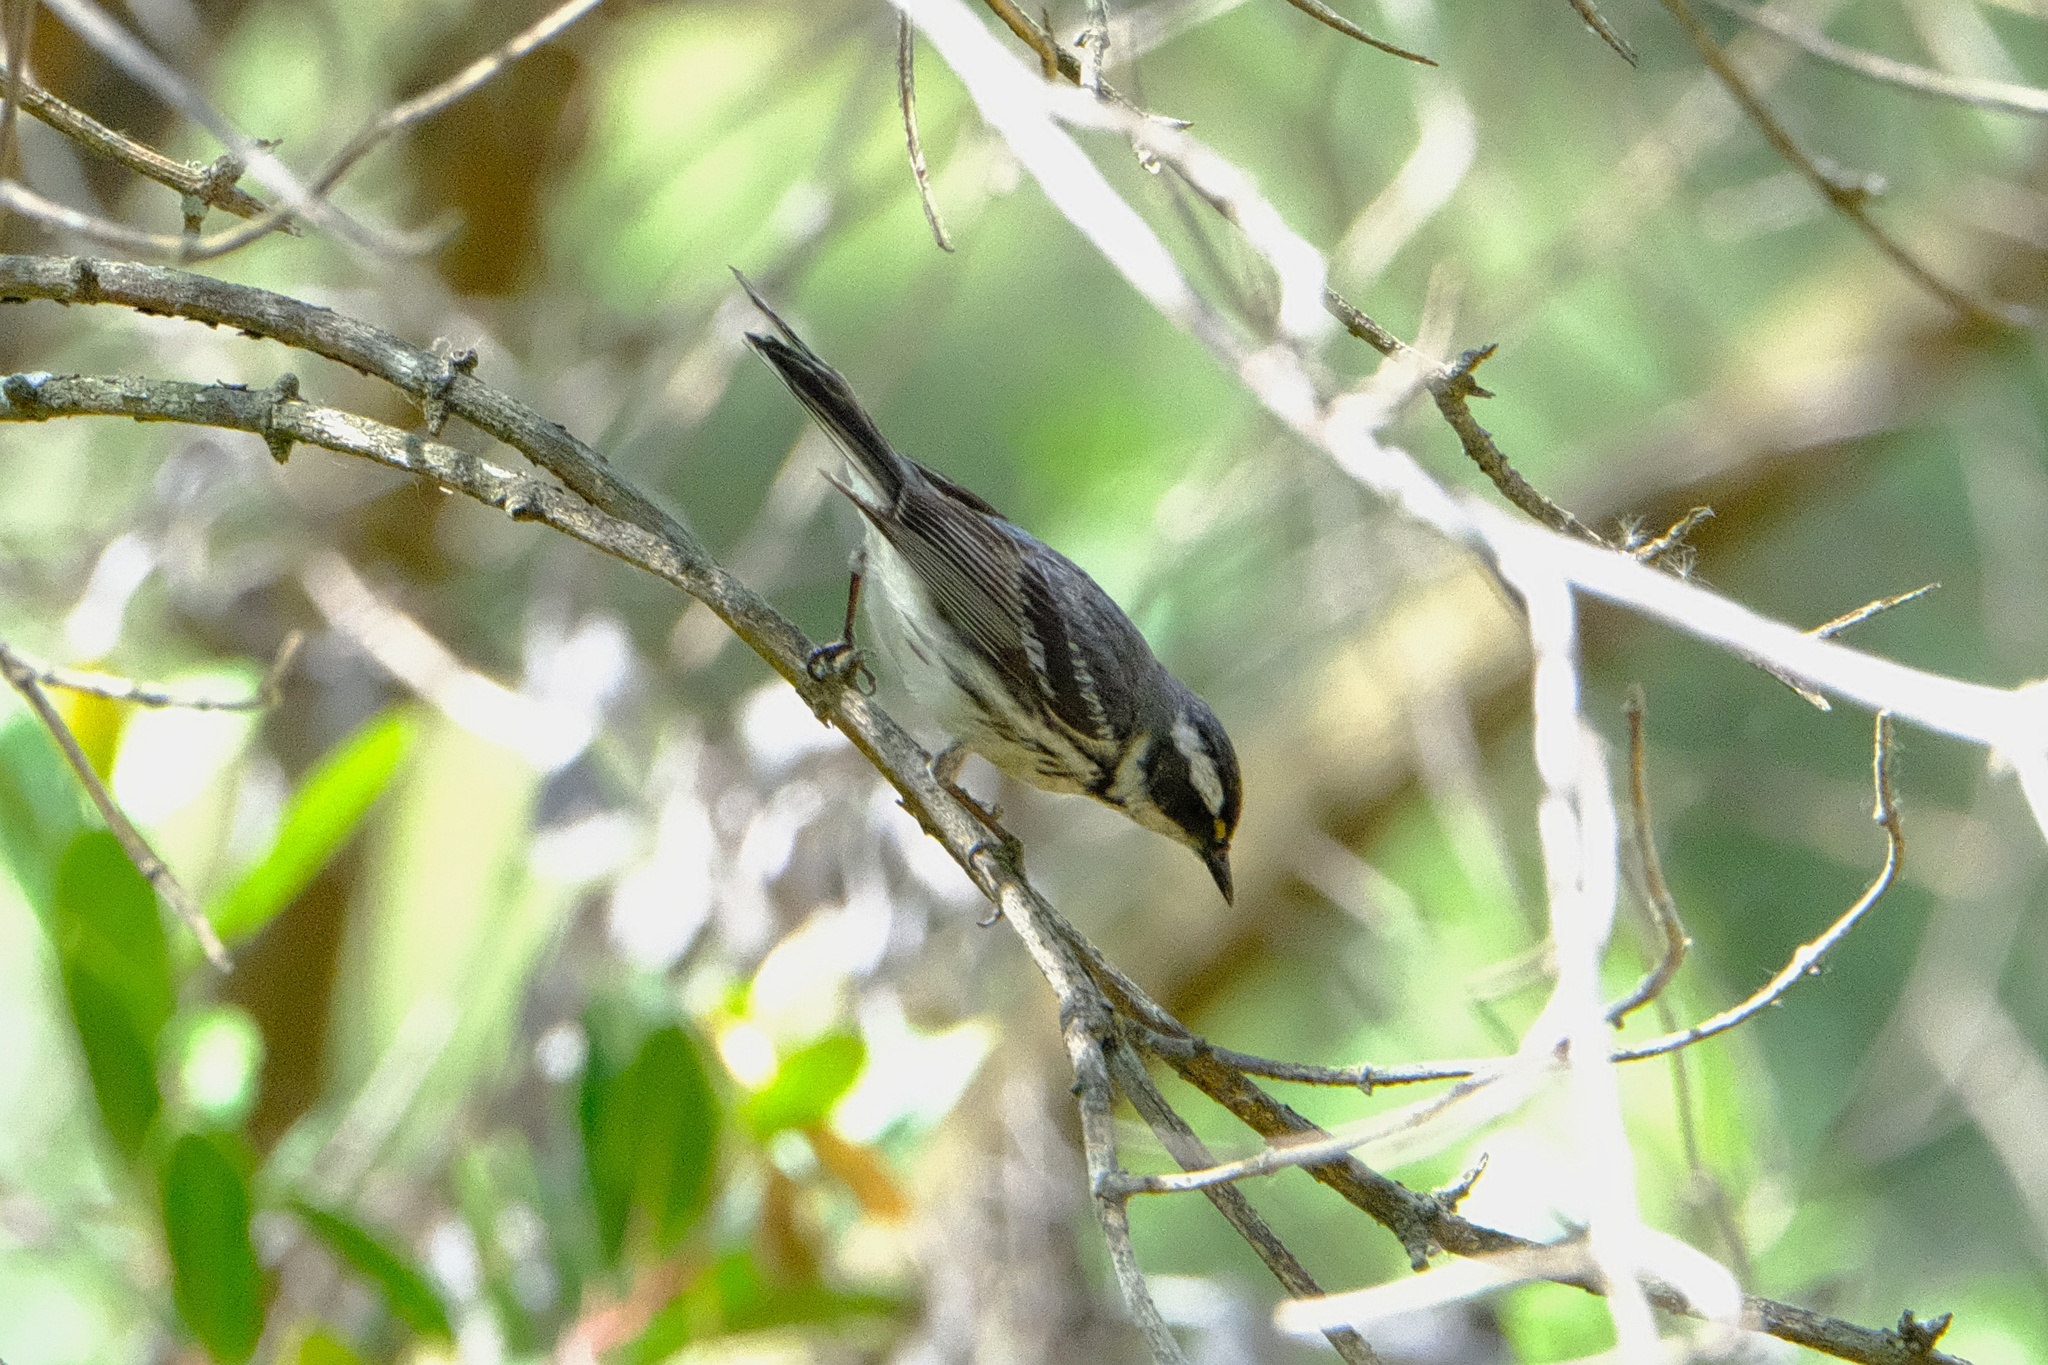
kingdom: Animalia
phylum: Chordata
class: Aves
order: Passeriformes
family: Parulidae
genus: Setophaga
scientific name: Setophaga nigrescens
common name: Black-throated gray warbler
